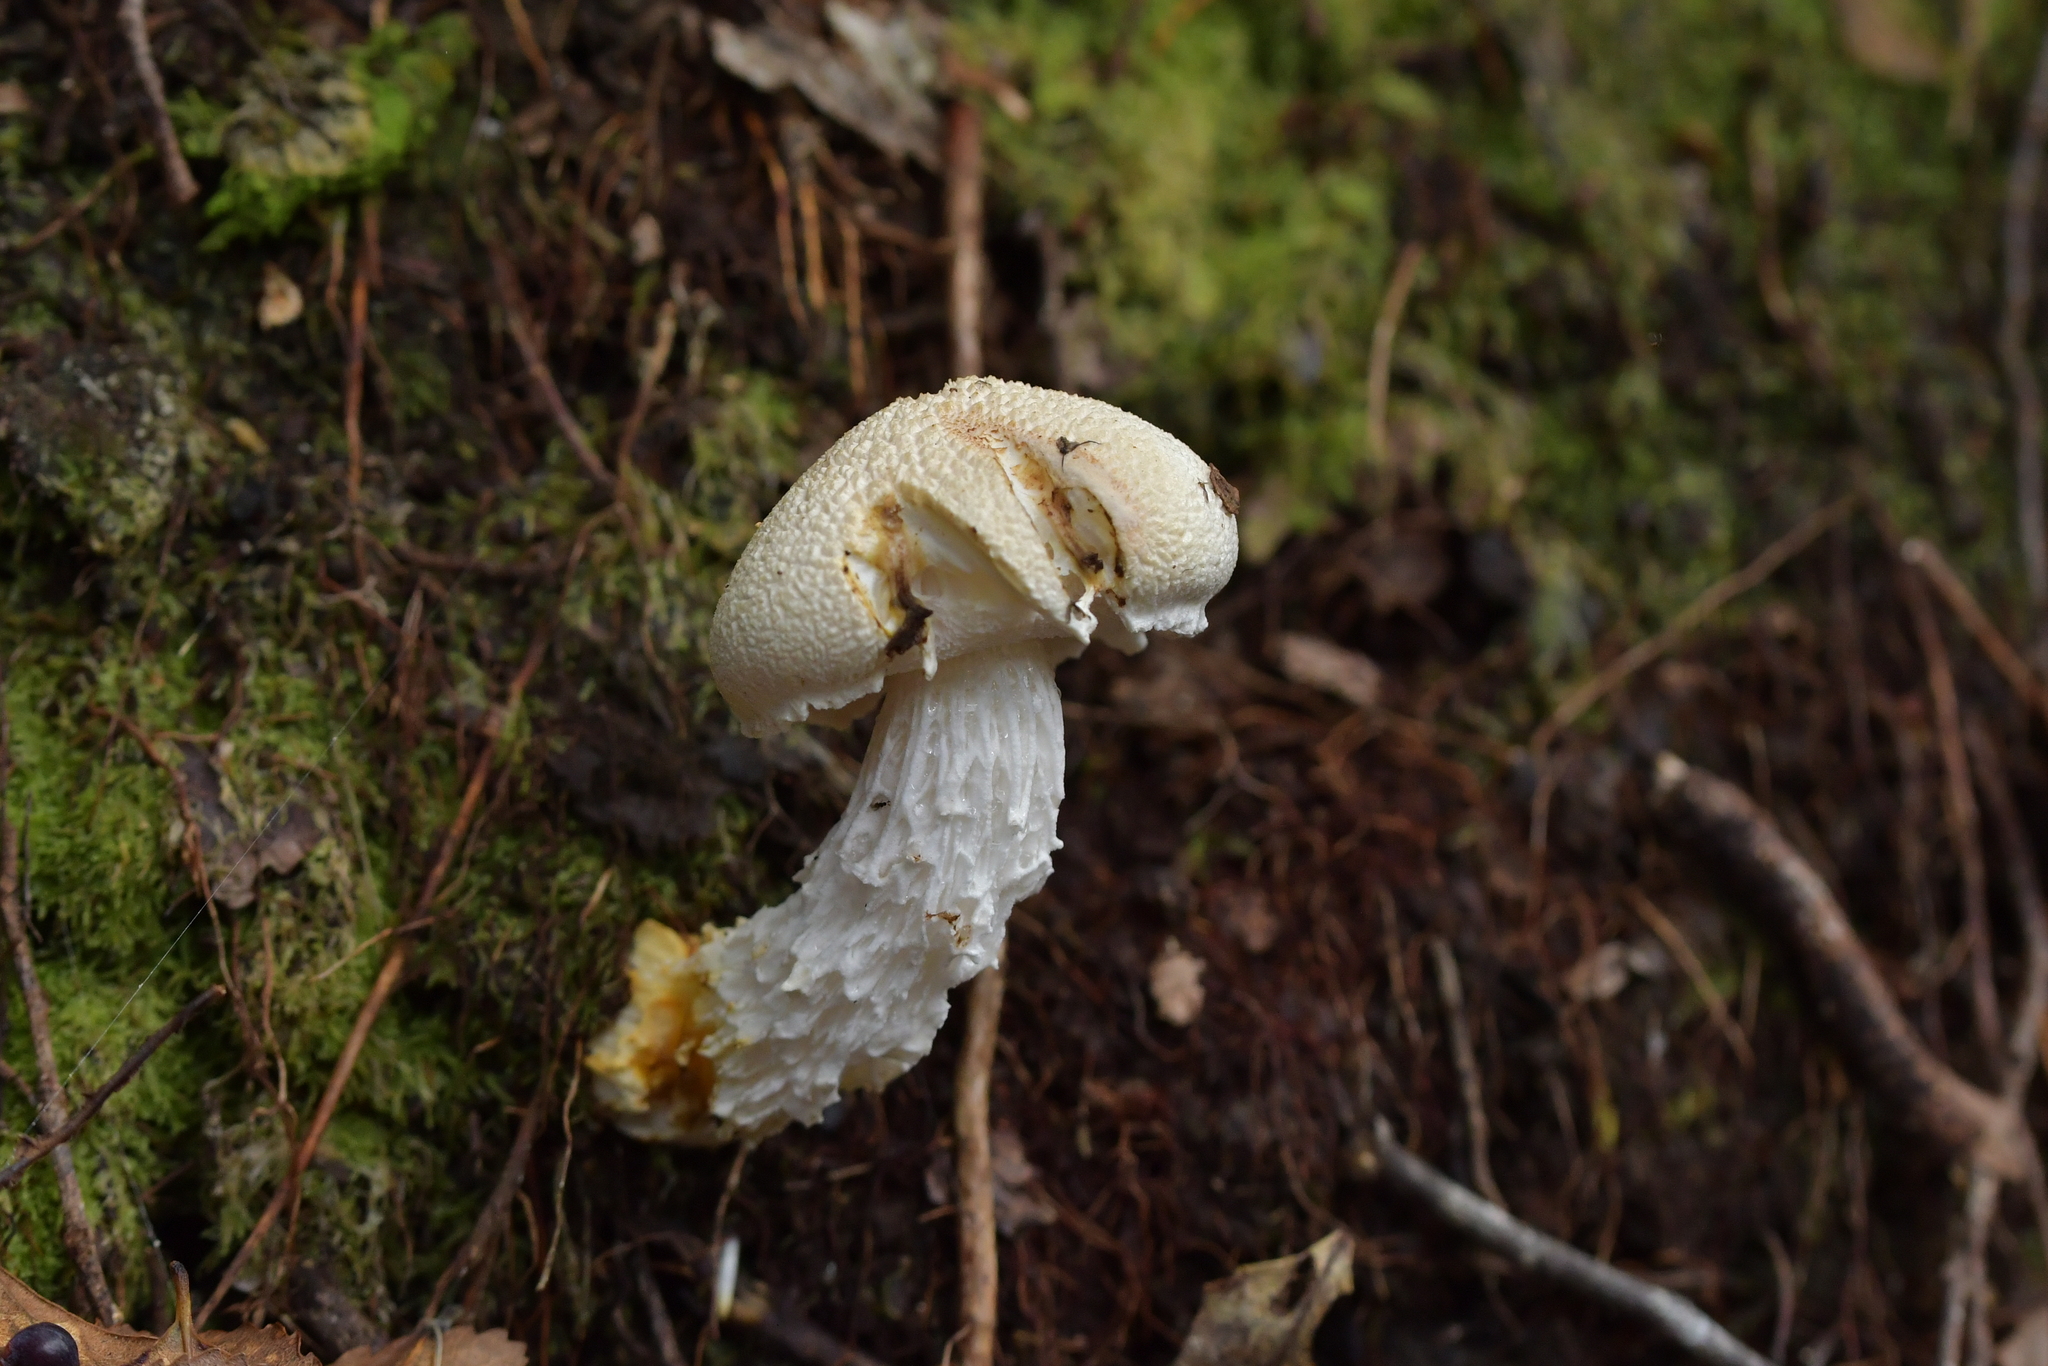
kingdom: Fungi
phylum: Basidiomycota
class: Agaricomycetes
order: Boletales
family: Boletaceae
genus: Fistulinella
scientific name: Fistulinella nivea
